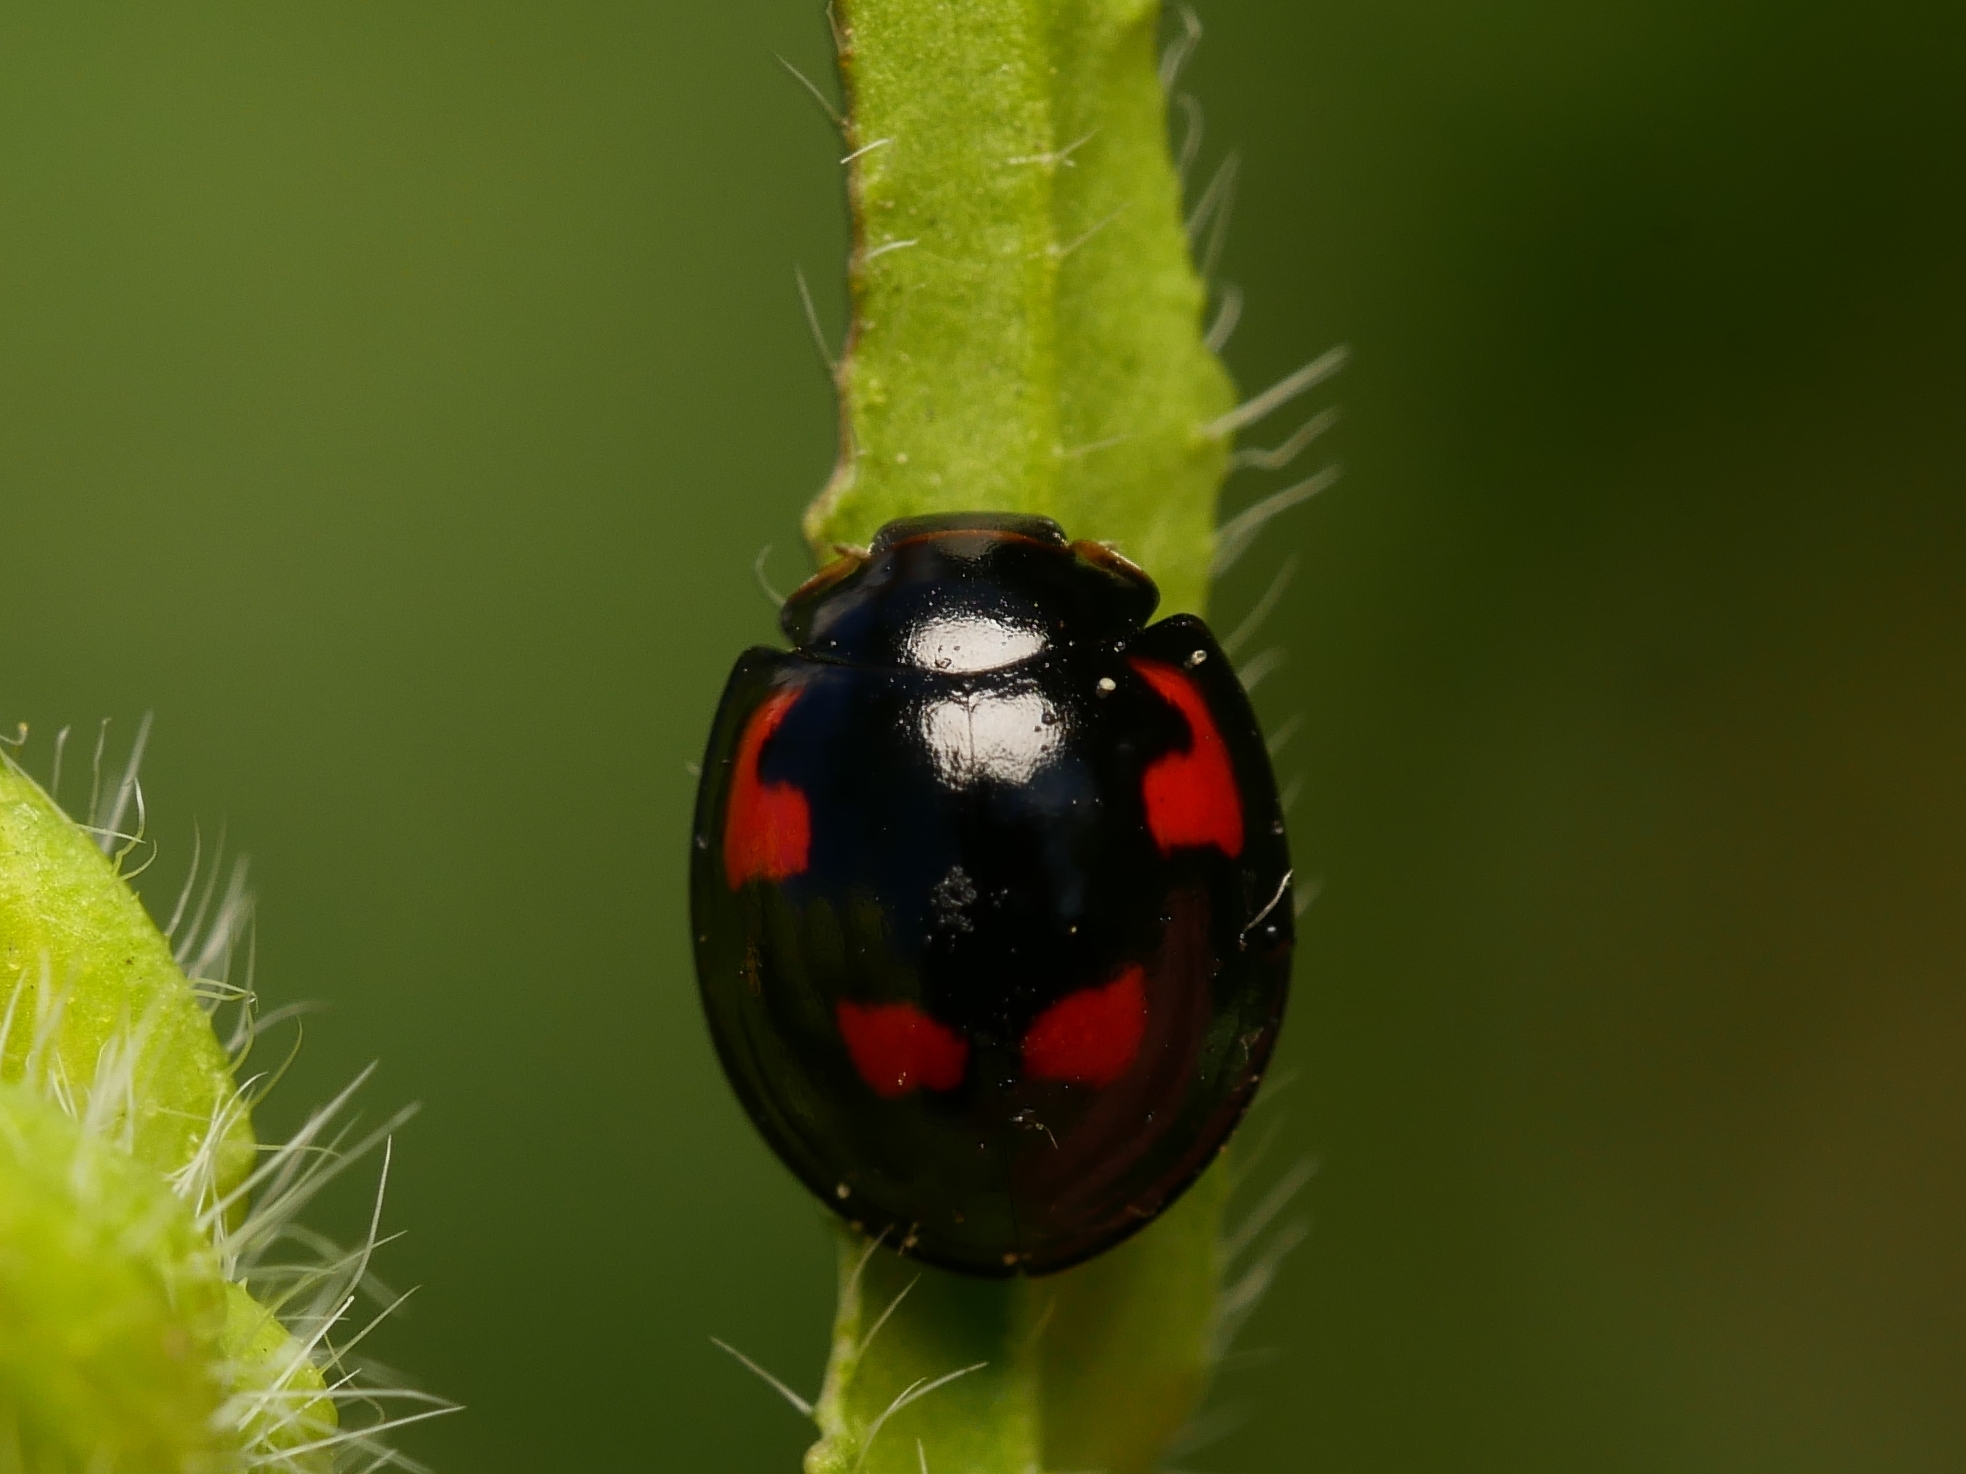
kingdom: Animalia
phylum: Arthropoda
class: Insecta
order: Coleoptera
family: Coccinellidae
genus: Brumus
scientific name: Brumus quadripustulatus
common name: Ladybird beetle
